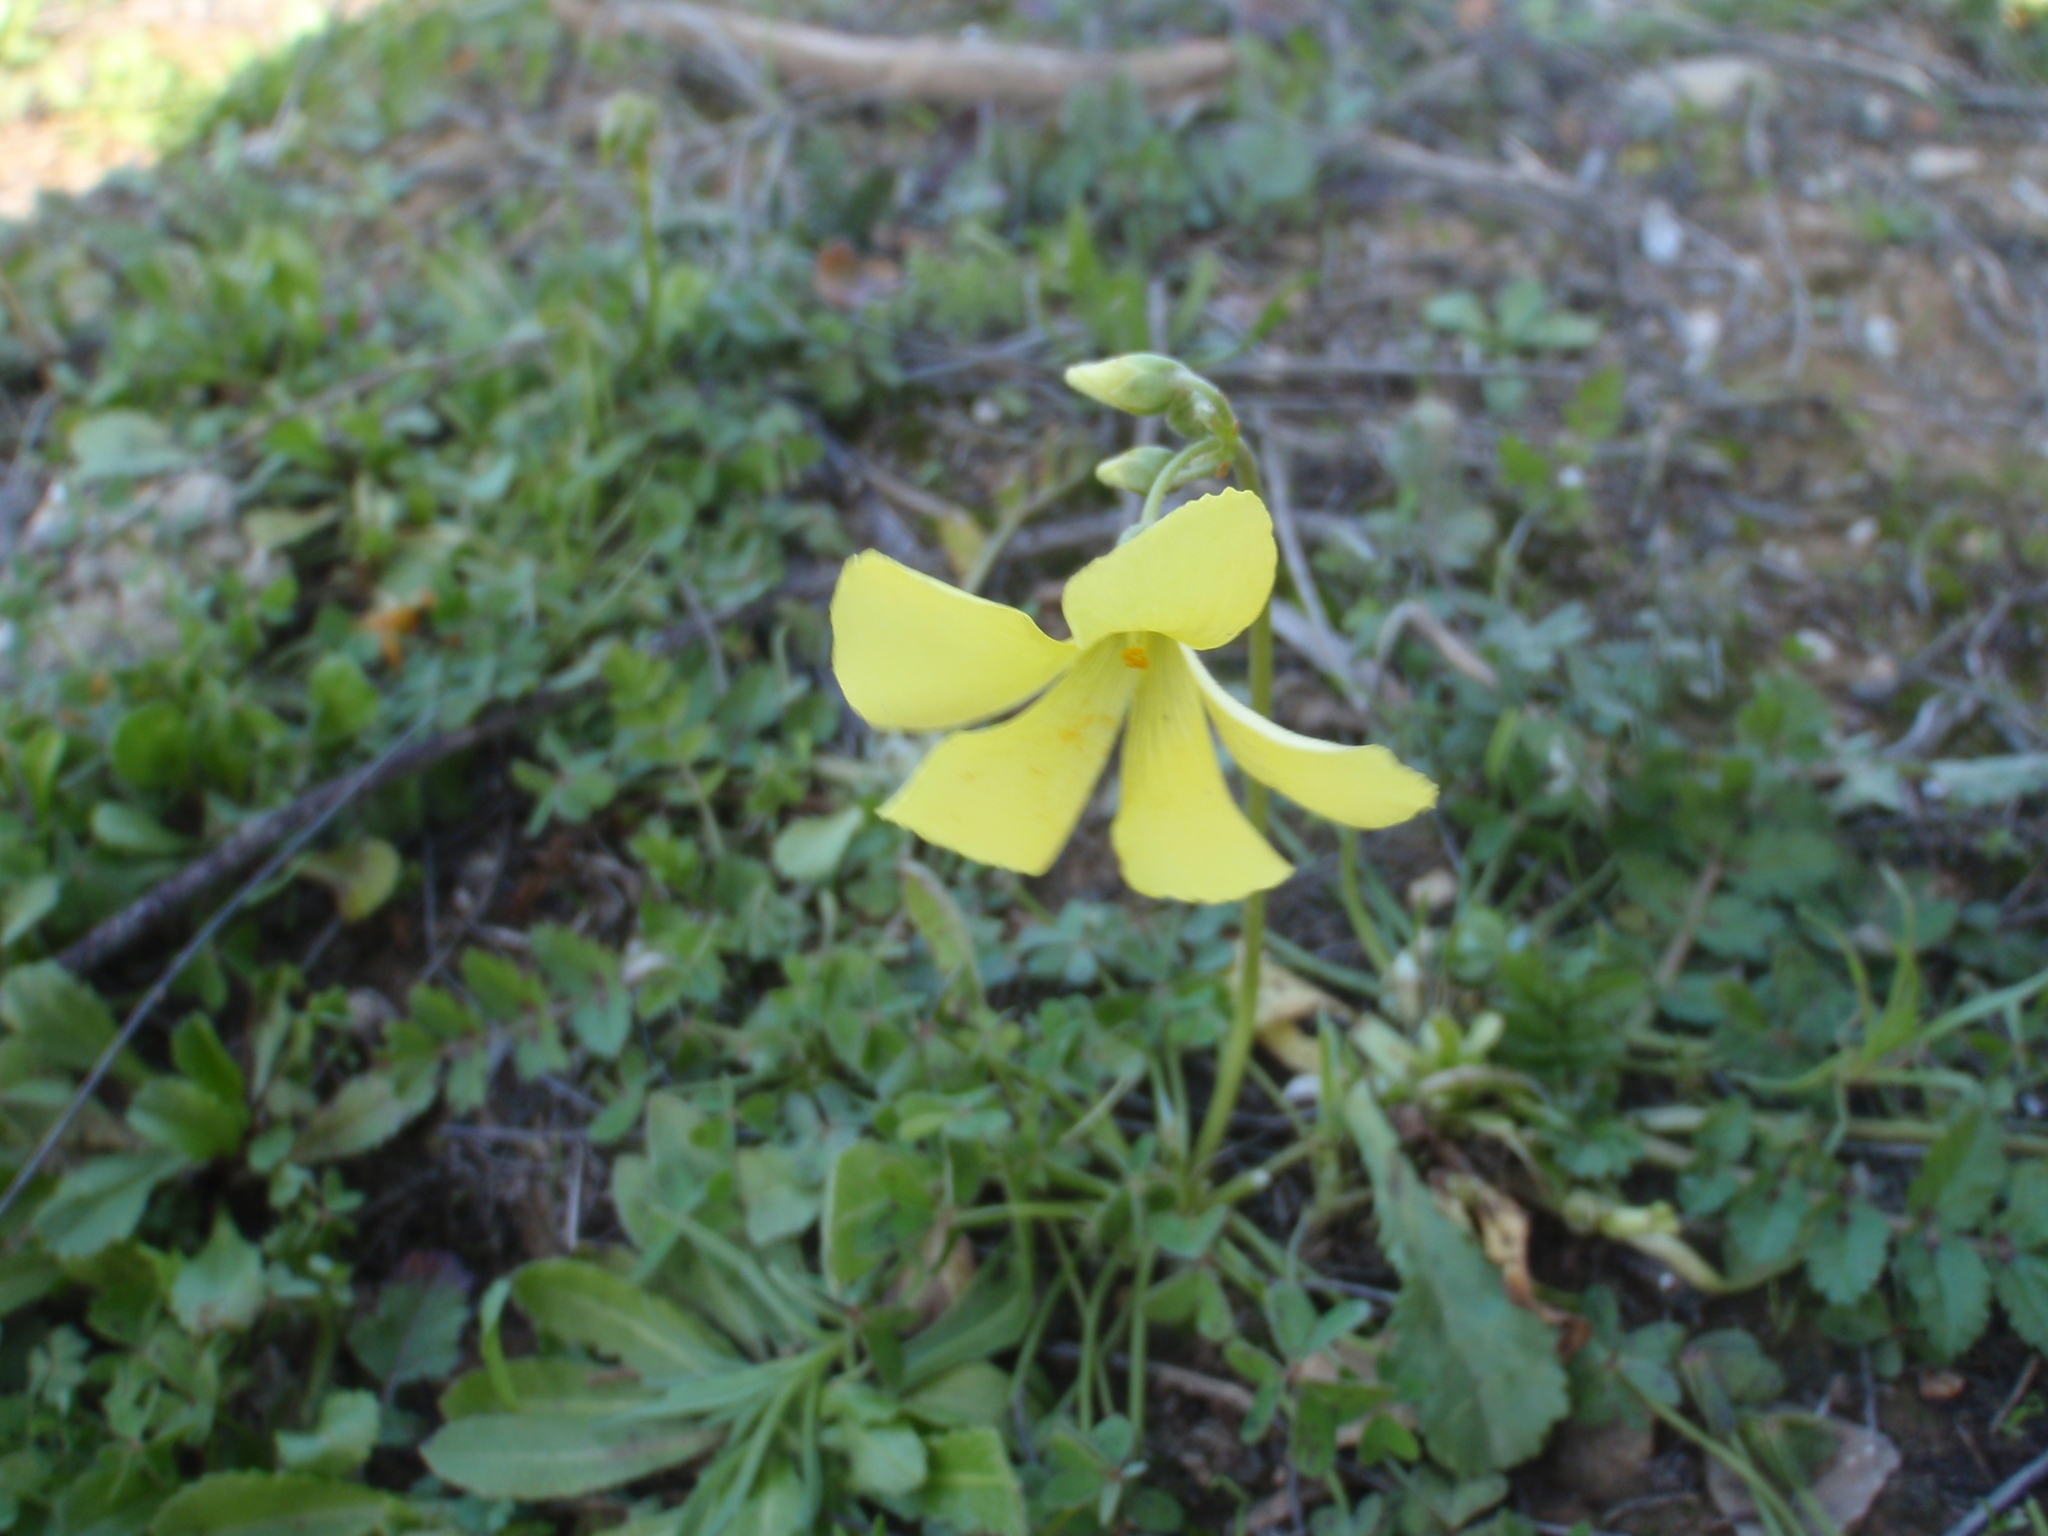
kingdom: Plantae
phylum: Tracheophyta
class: Magnoliopsida
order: Oxalidales
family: Oxalidaceae
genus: Oxalis
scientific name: Oxalis pes-caprae
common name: Bermuda-buttercup
